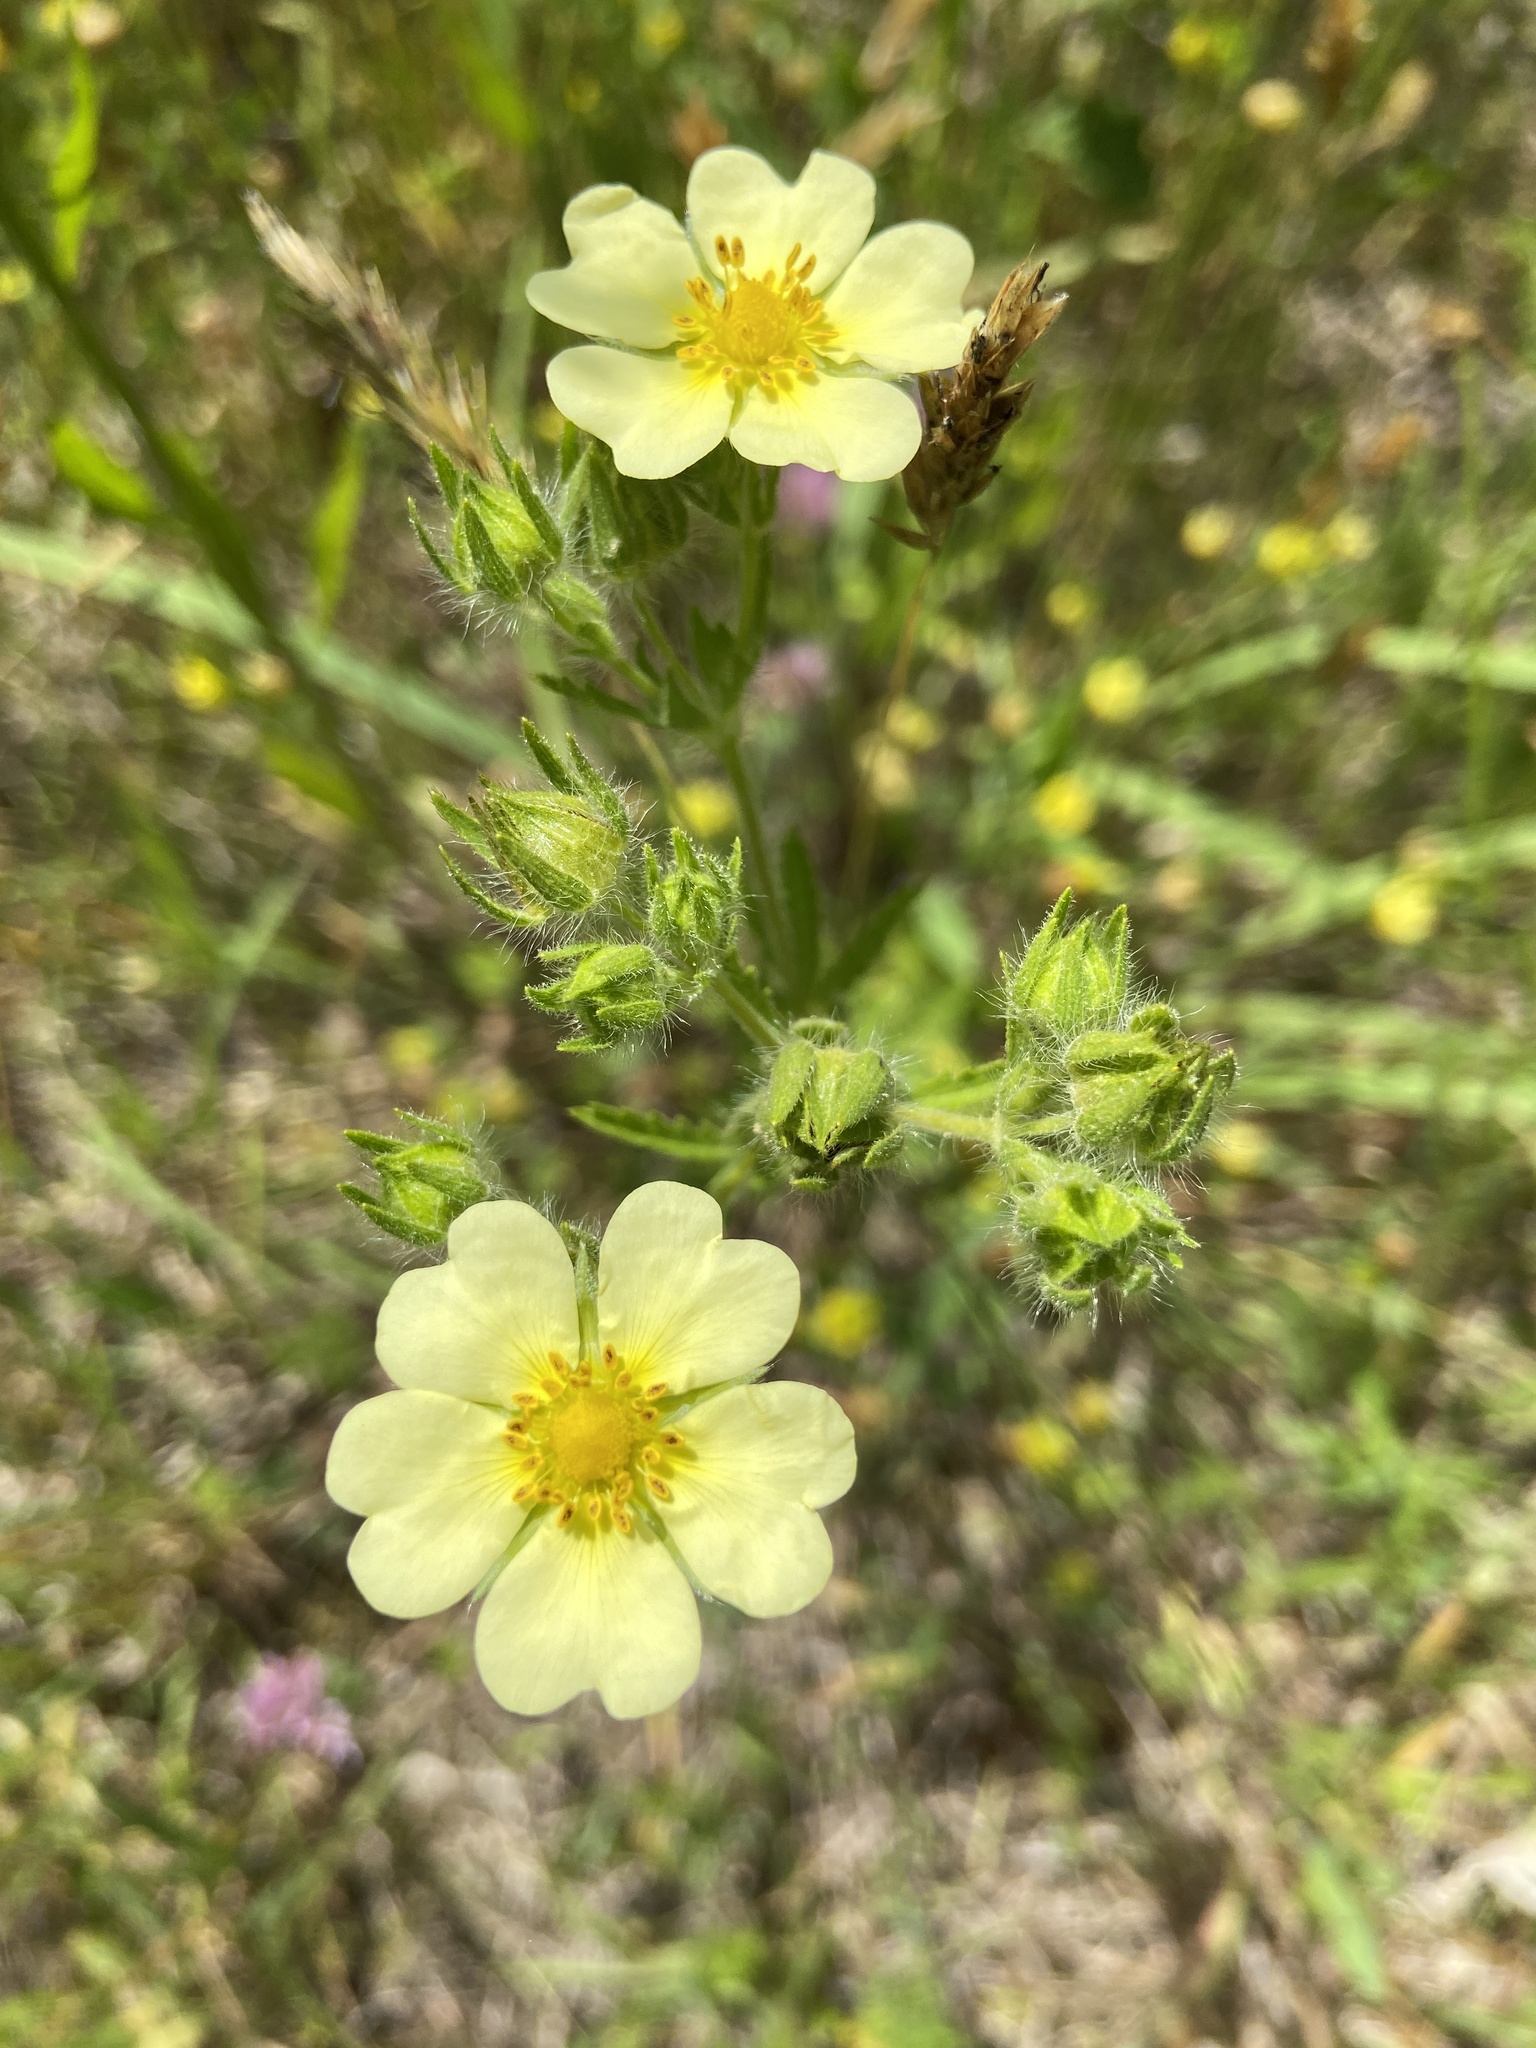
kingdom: Plantae
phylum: Tracheophyta
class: Magnoliopsida
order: Rosales
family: Rosaceae
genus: Potentilla
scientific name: Potentilla recta
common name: Sulphur cinquefoil
